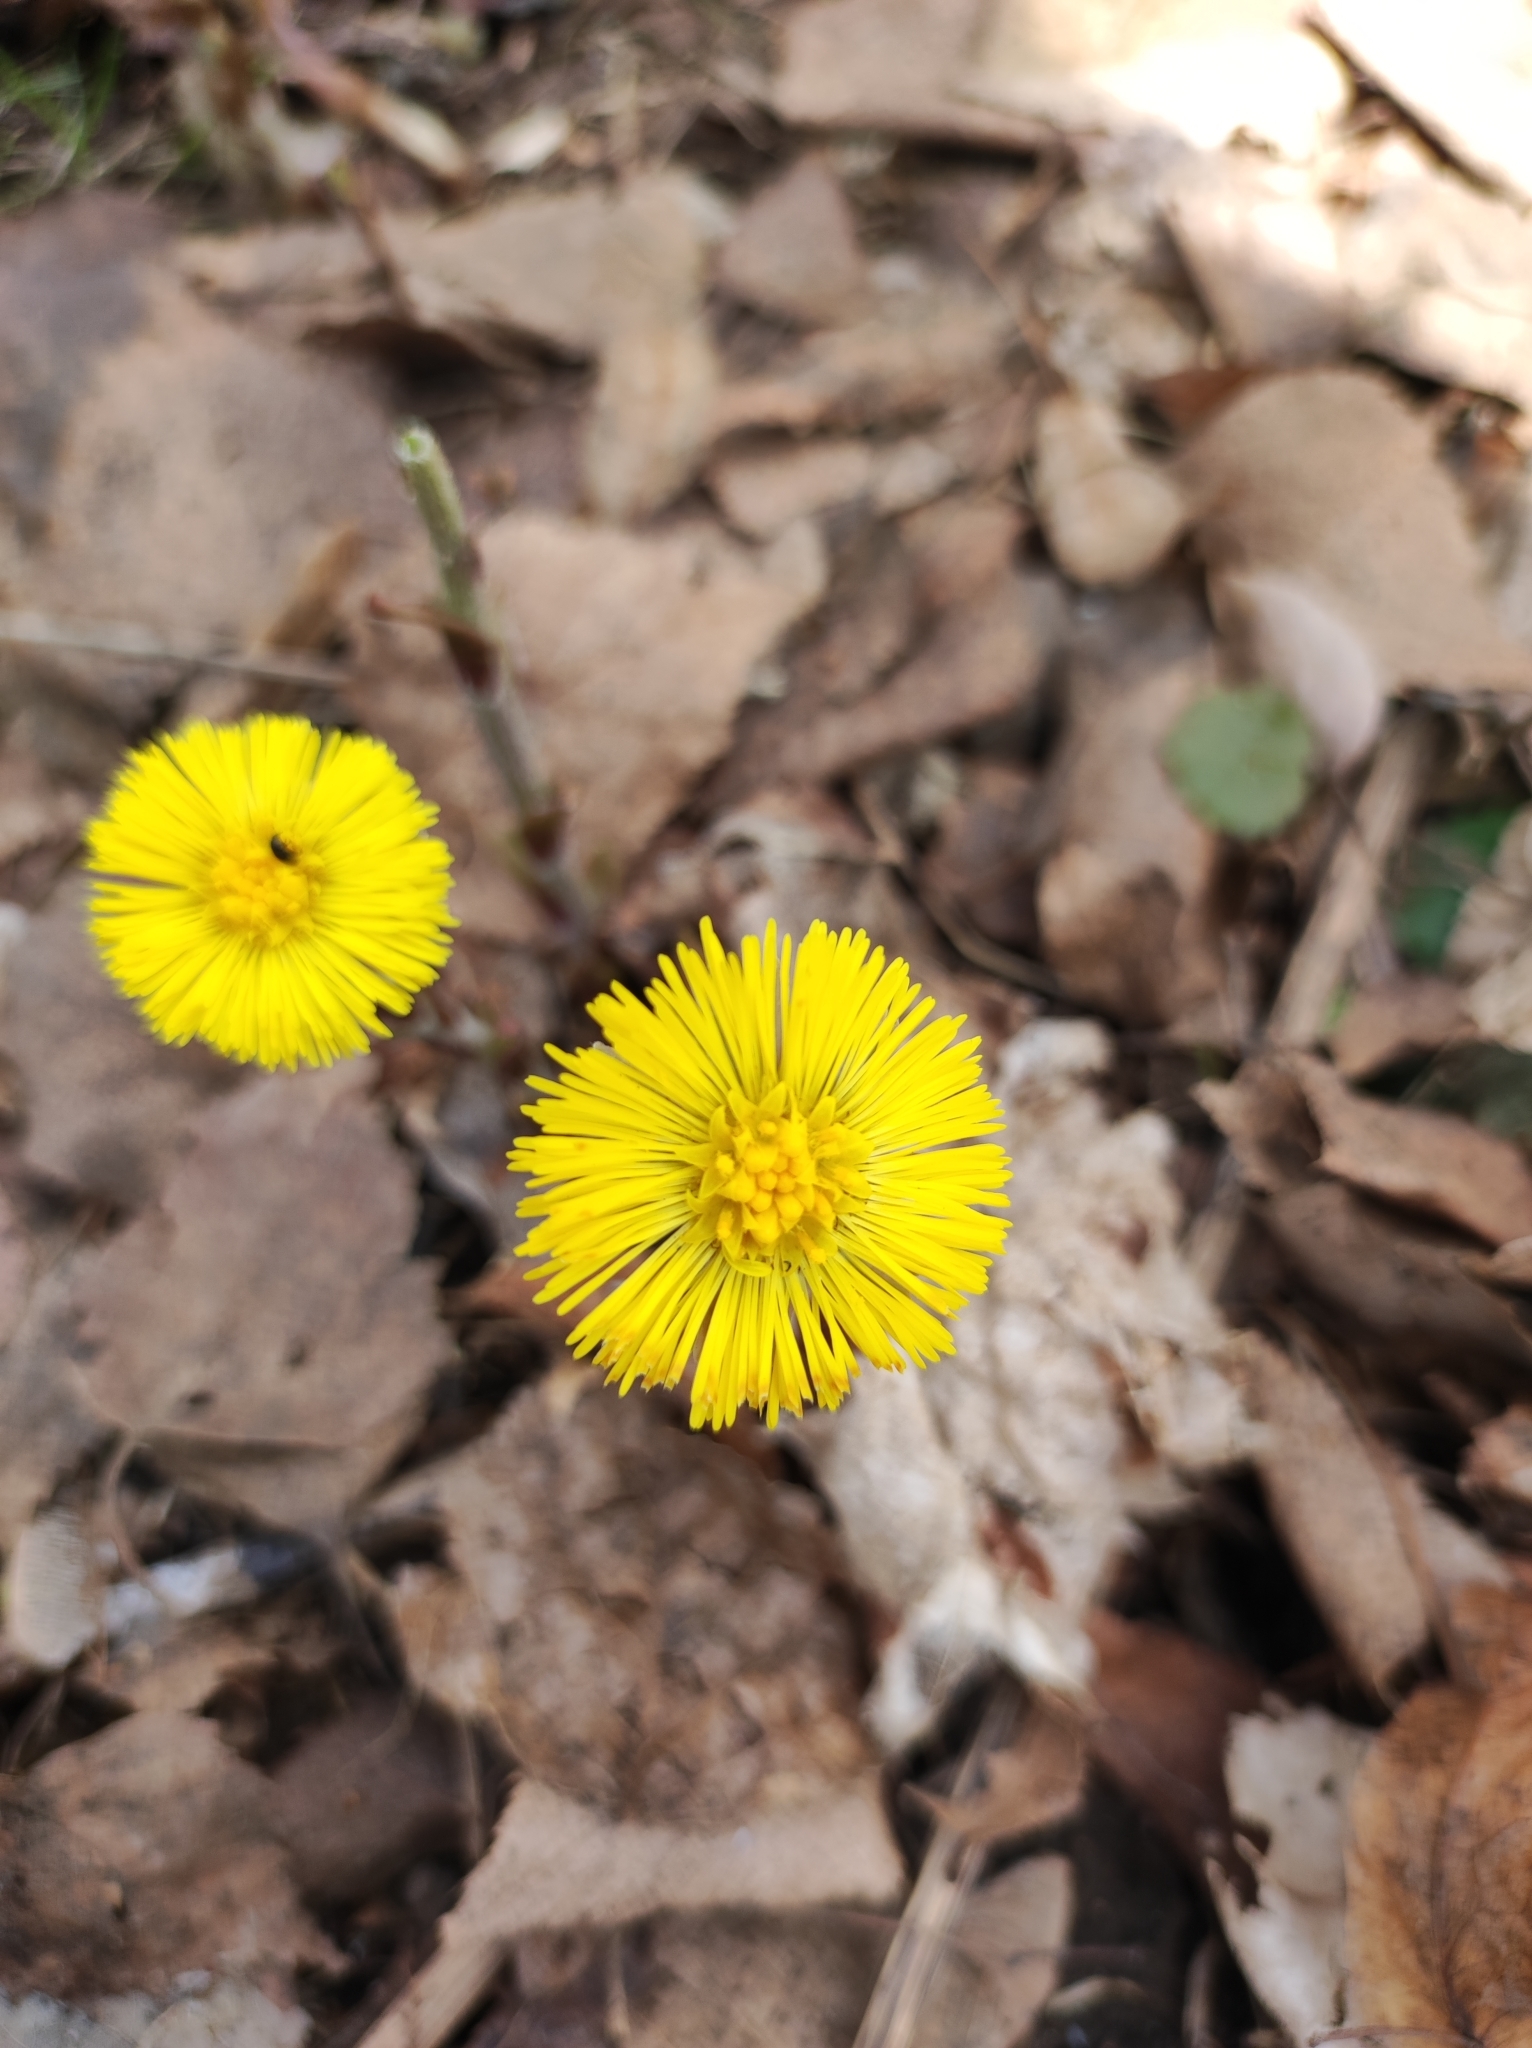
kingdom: Plantae
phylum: Tracheophyta
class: Magnoliopsida
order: Asterales
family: Asteraceae
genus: Tussilago
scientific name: Tussilago farfara
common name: Coltsfoot
